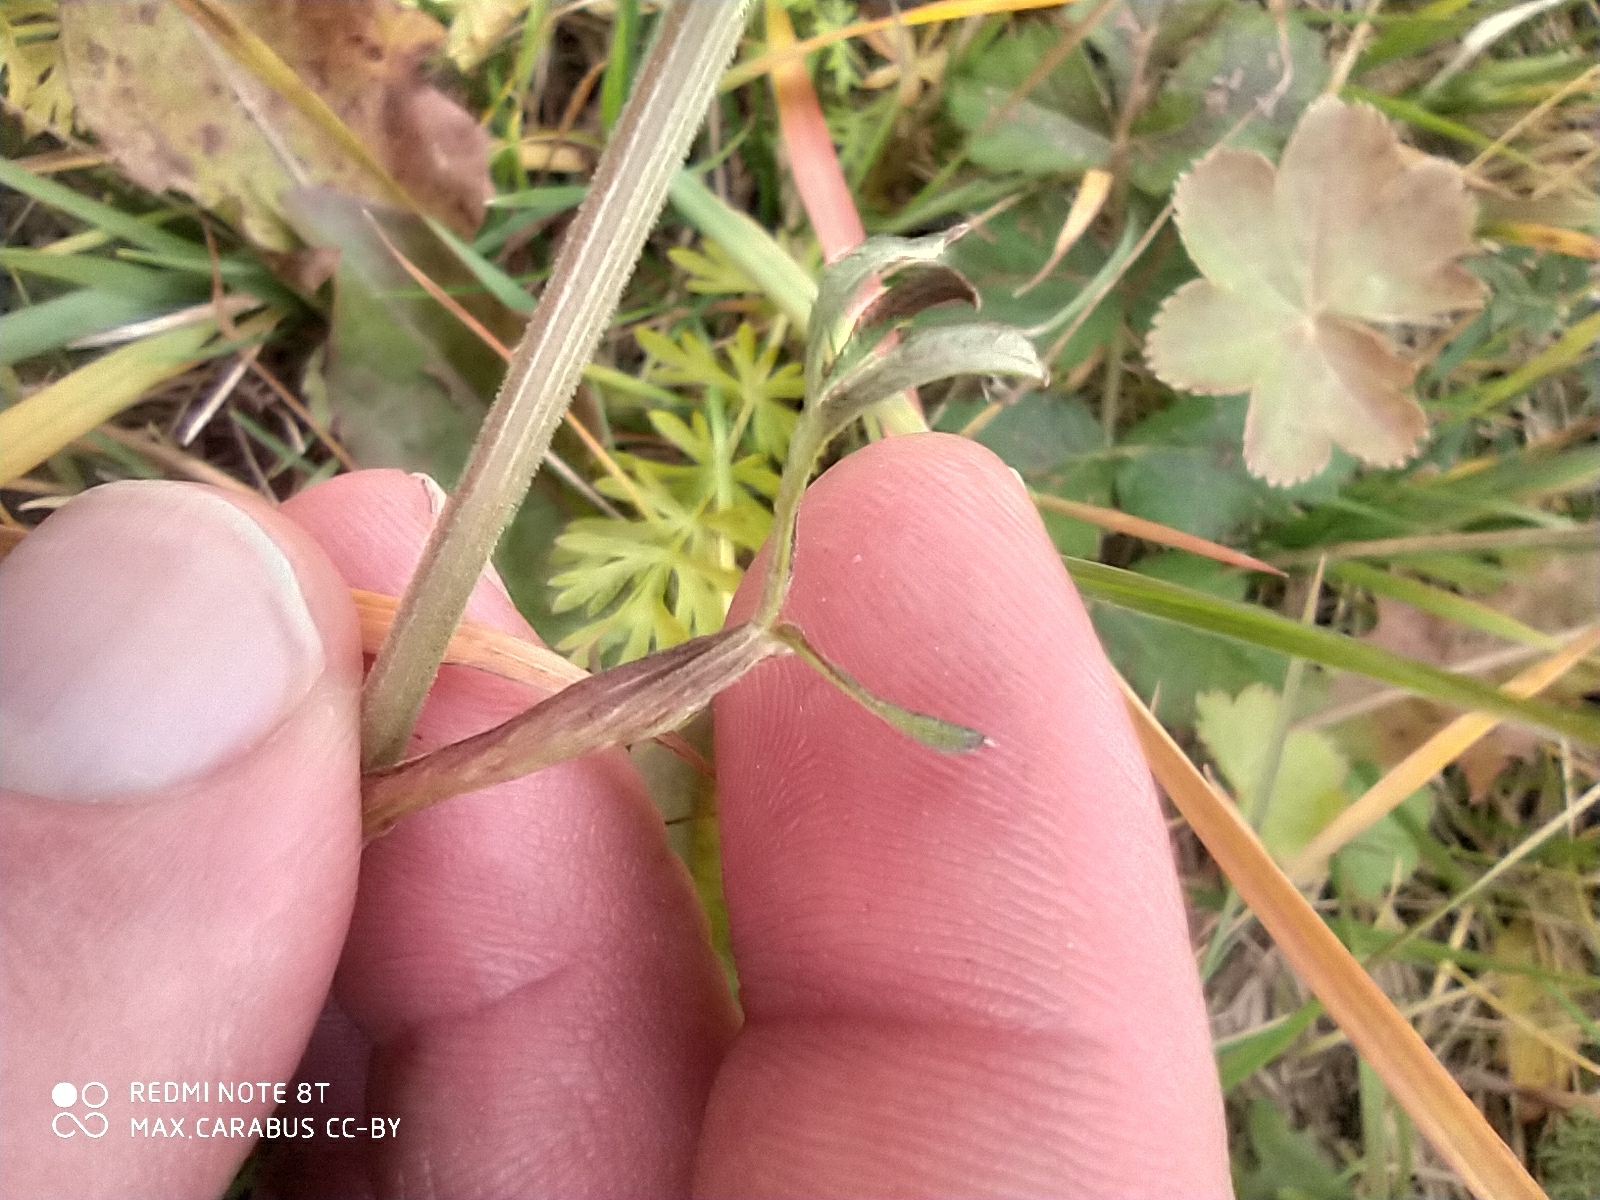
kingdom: Plantae
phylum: Tracheophyta
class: Magnoliopsida
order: Apiales
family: Apiaceae
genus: Pimpinella
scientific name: Pimpinella saxifraga
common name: Burnet-saxifrage
